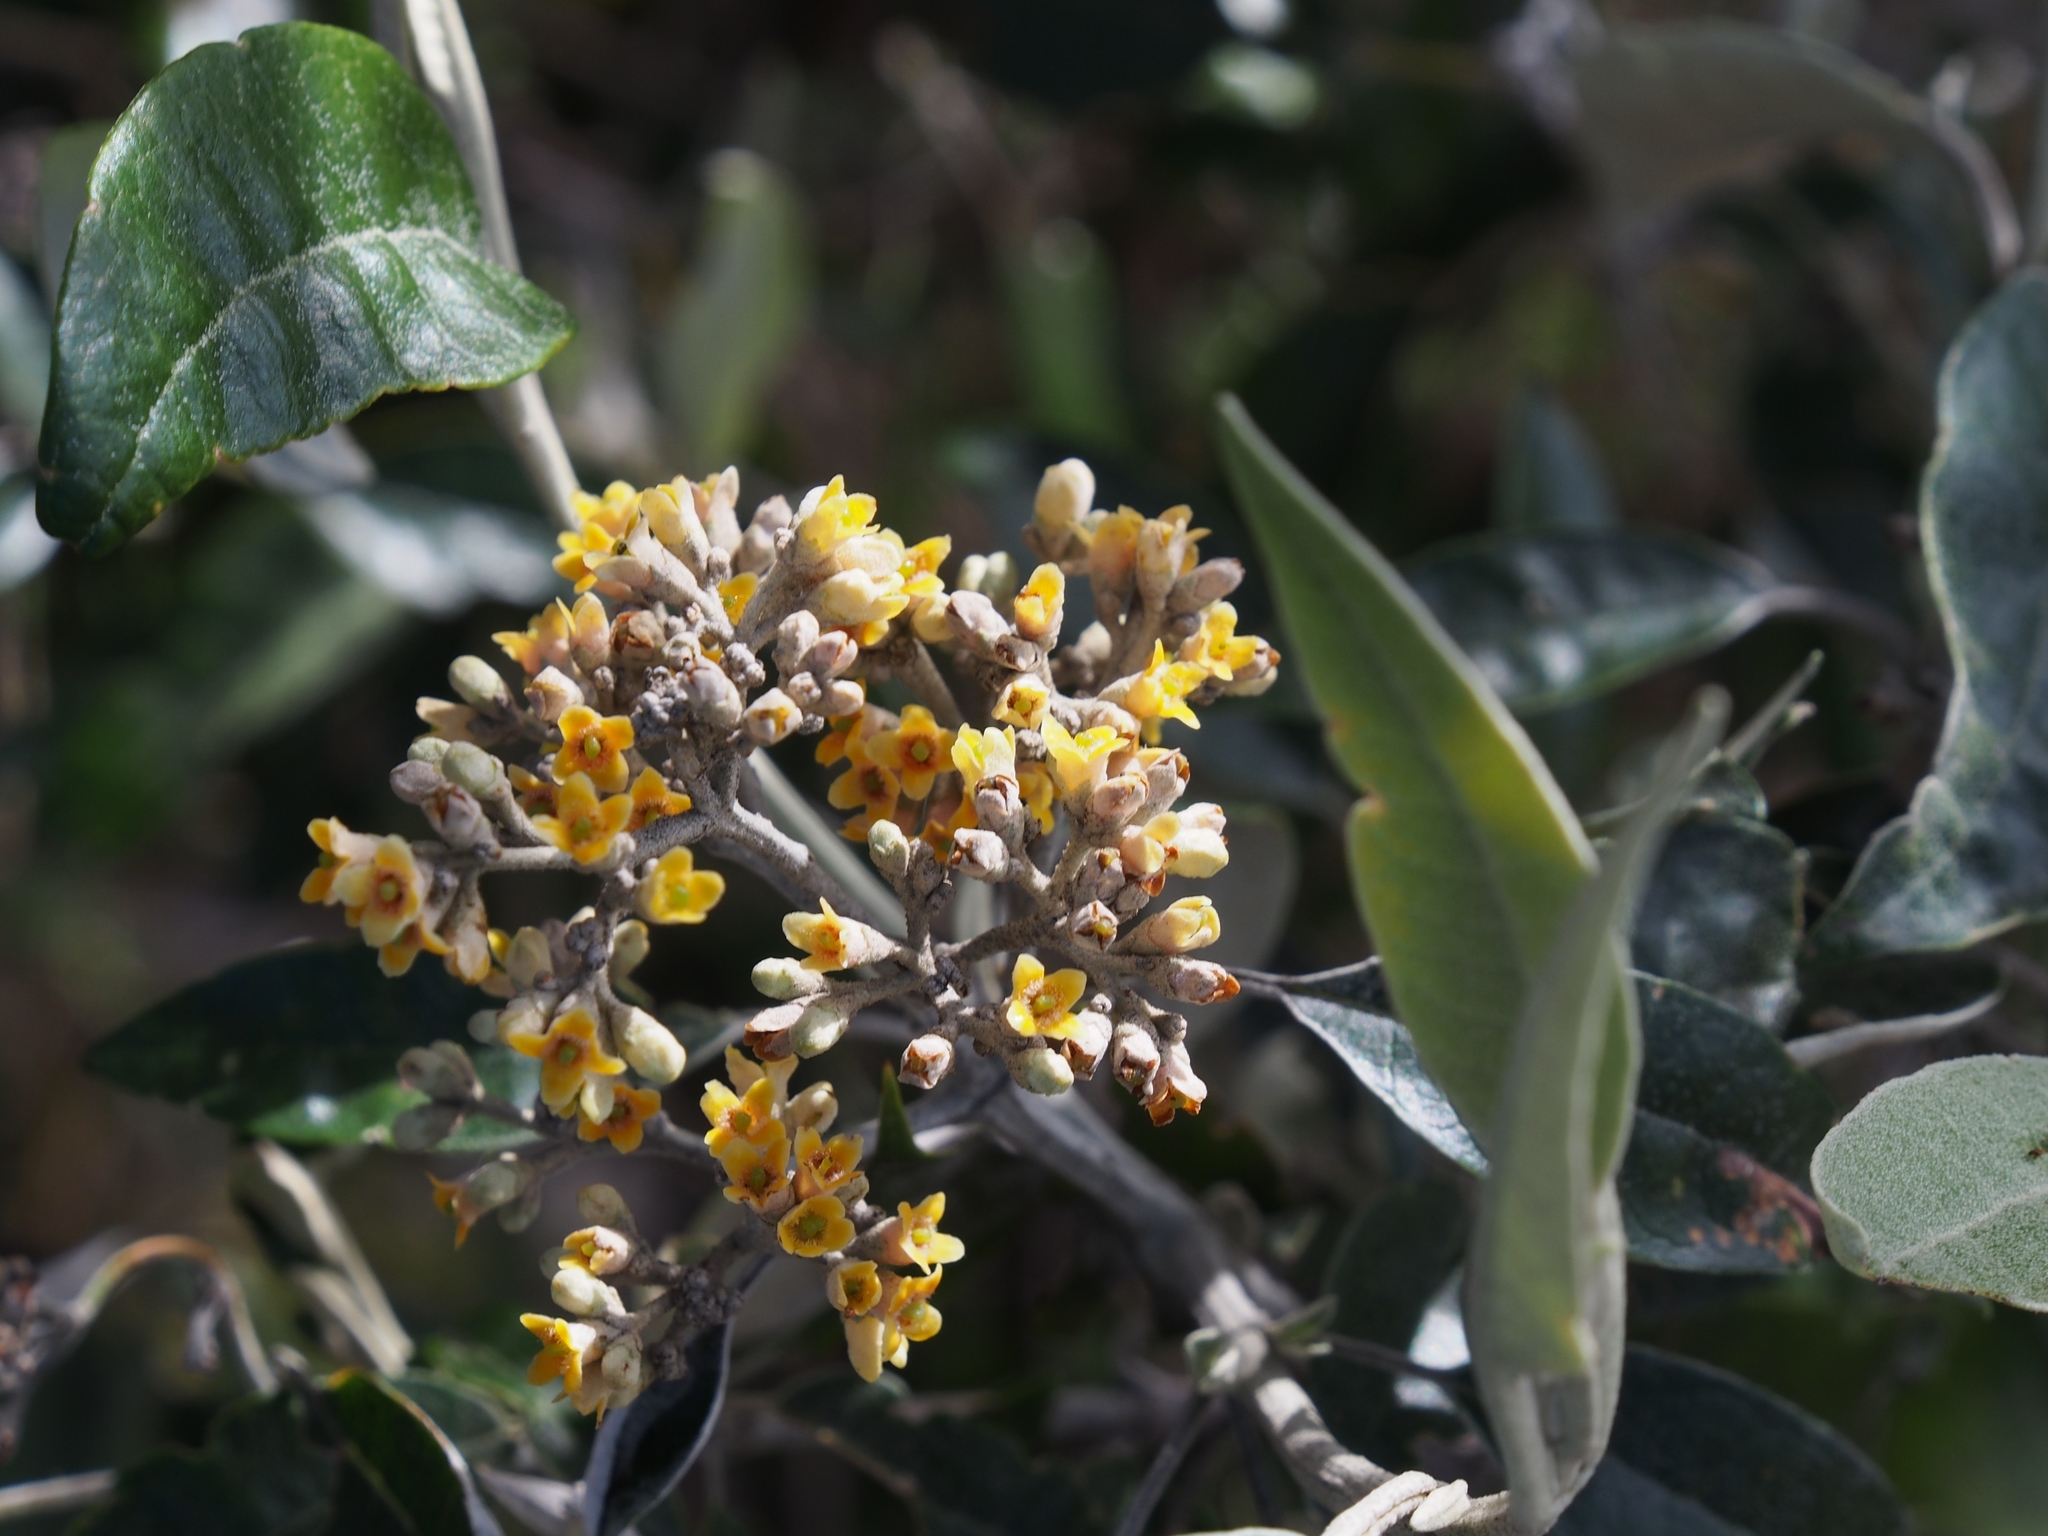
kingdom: Plantae
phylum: Tracheophyta
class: Magnoliopsida
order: Lamiales
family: Scrophulariaceae
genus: Buddleja
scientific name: Buddleja nitida
